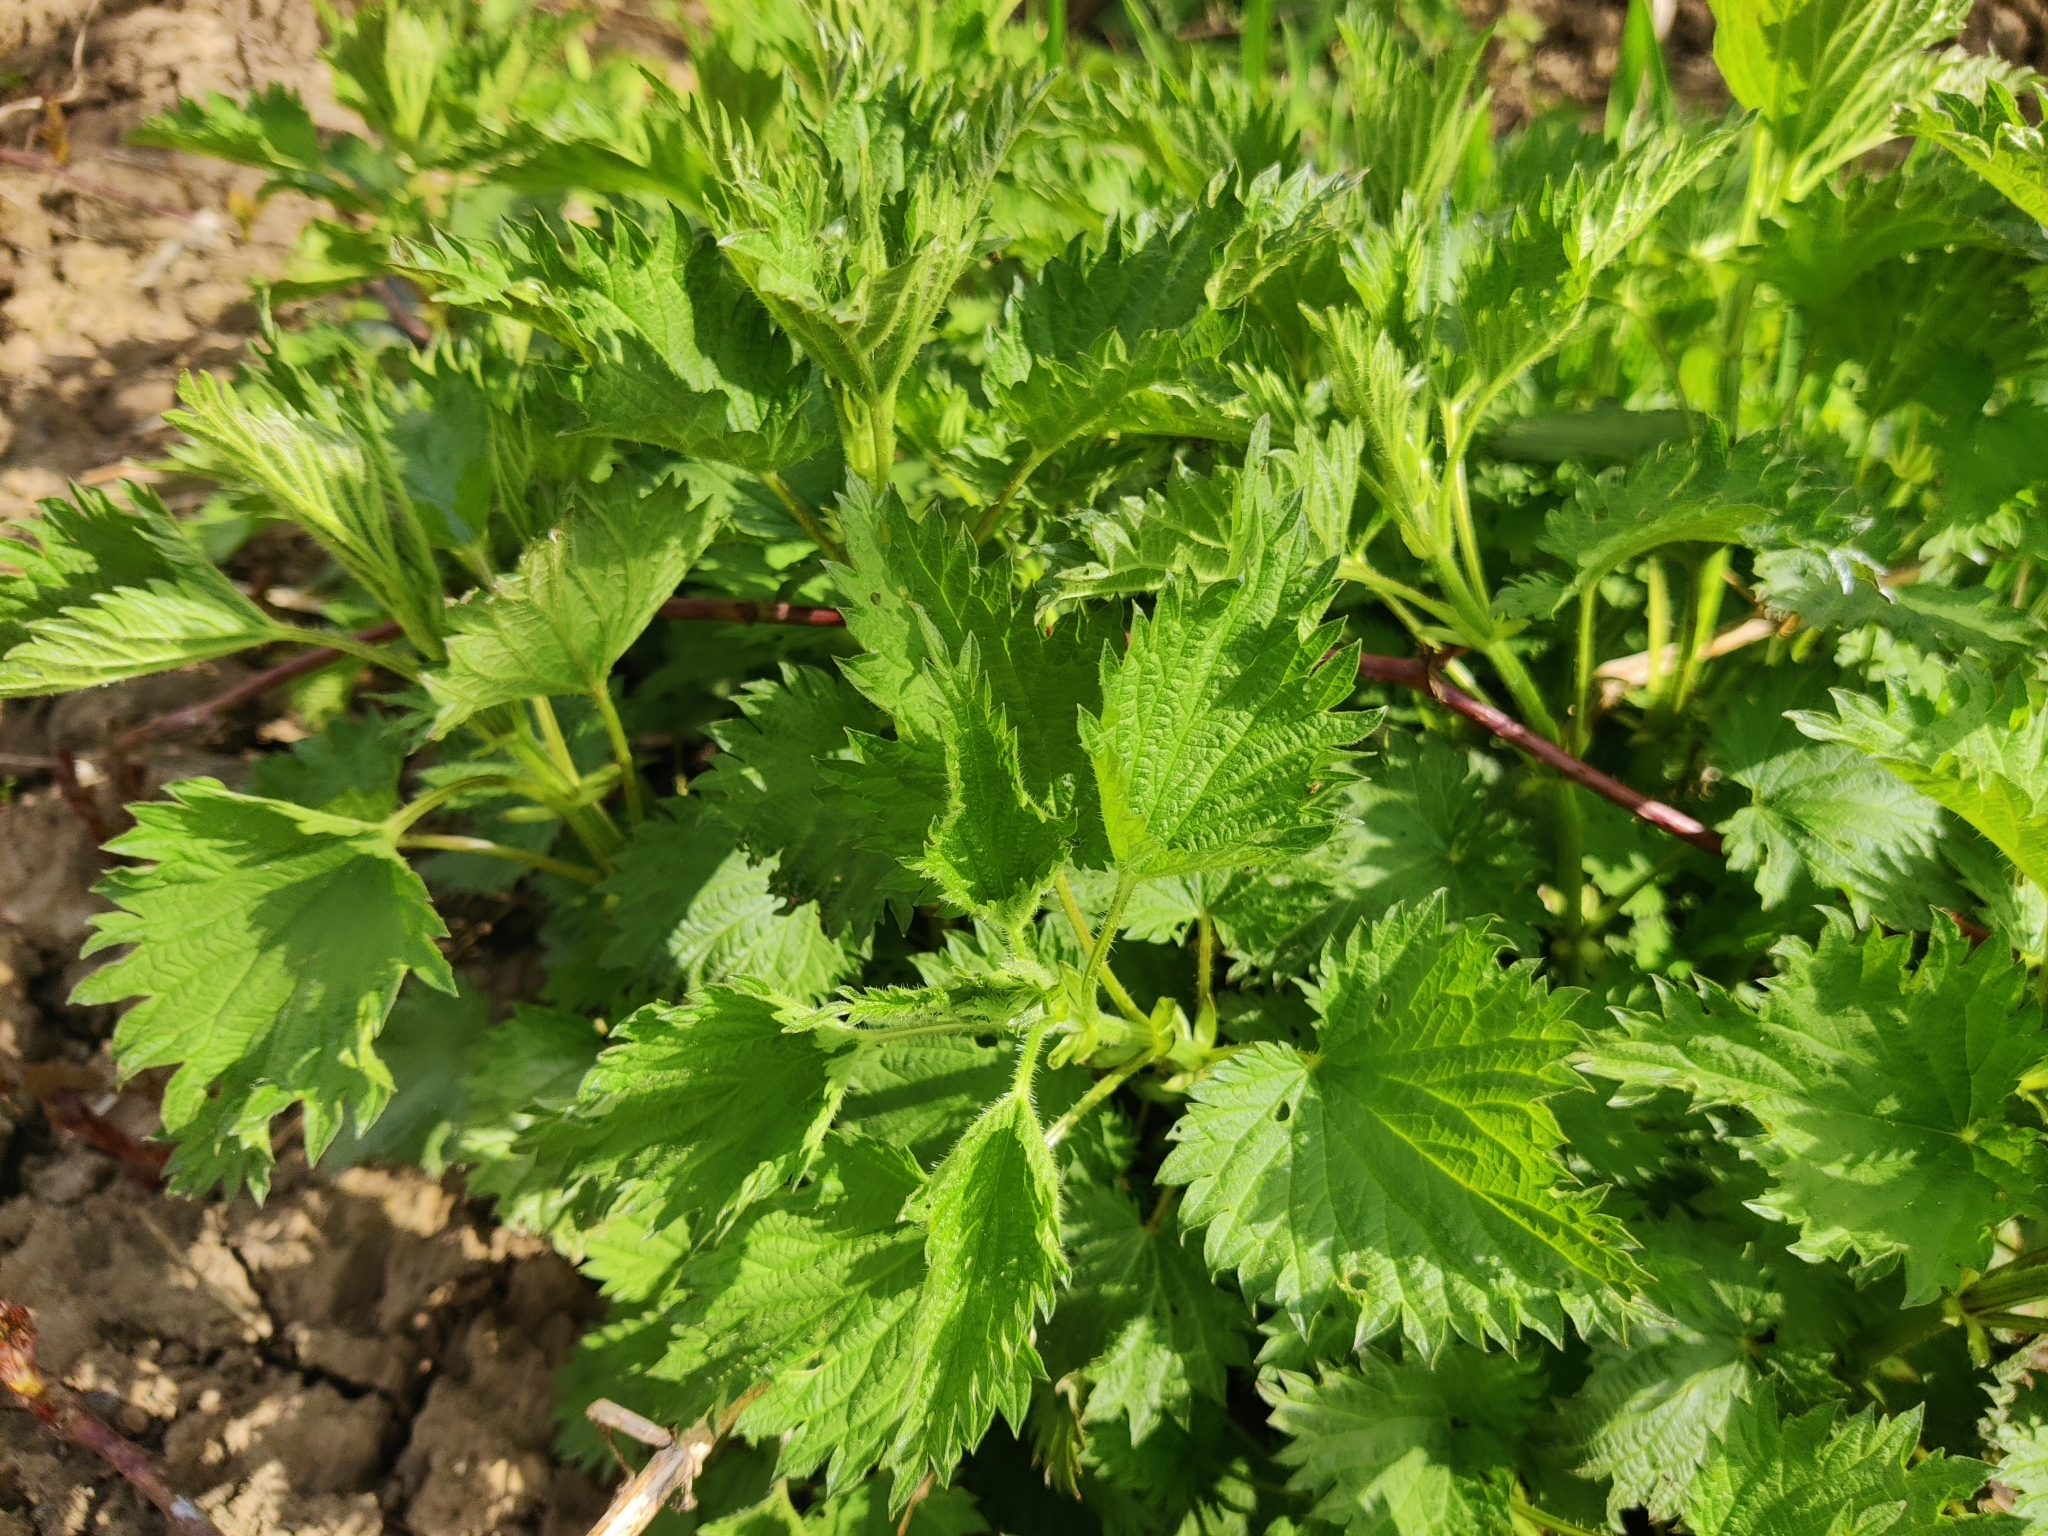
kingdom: Plantae
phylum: Tracheophyta
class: Magnoliopsida
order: Rosales
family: Urticaceae
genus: Urtica
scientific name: Urtica dioica
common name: Common nettle
